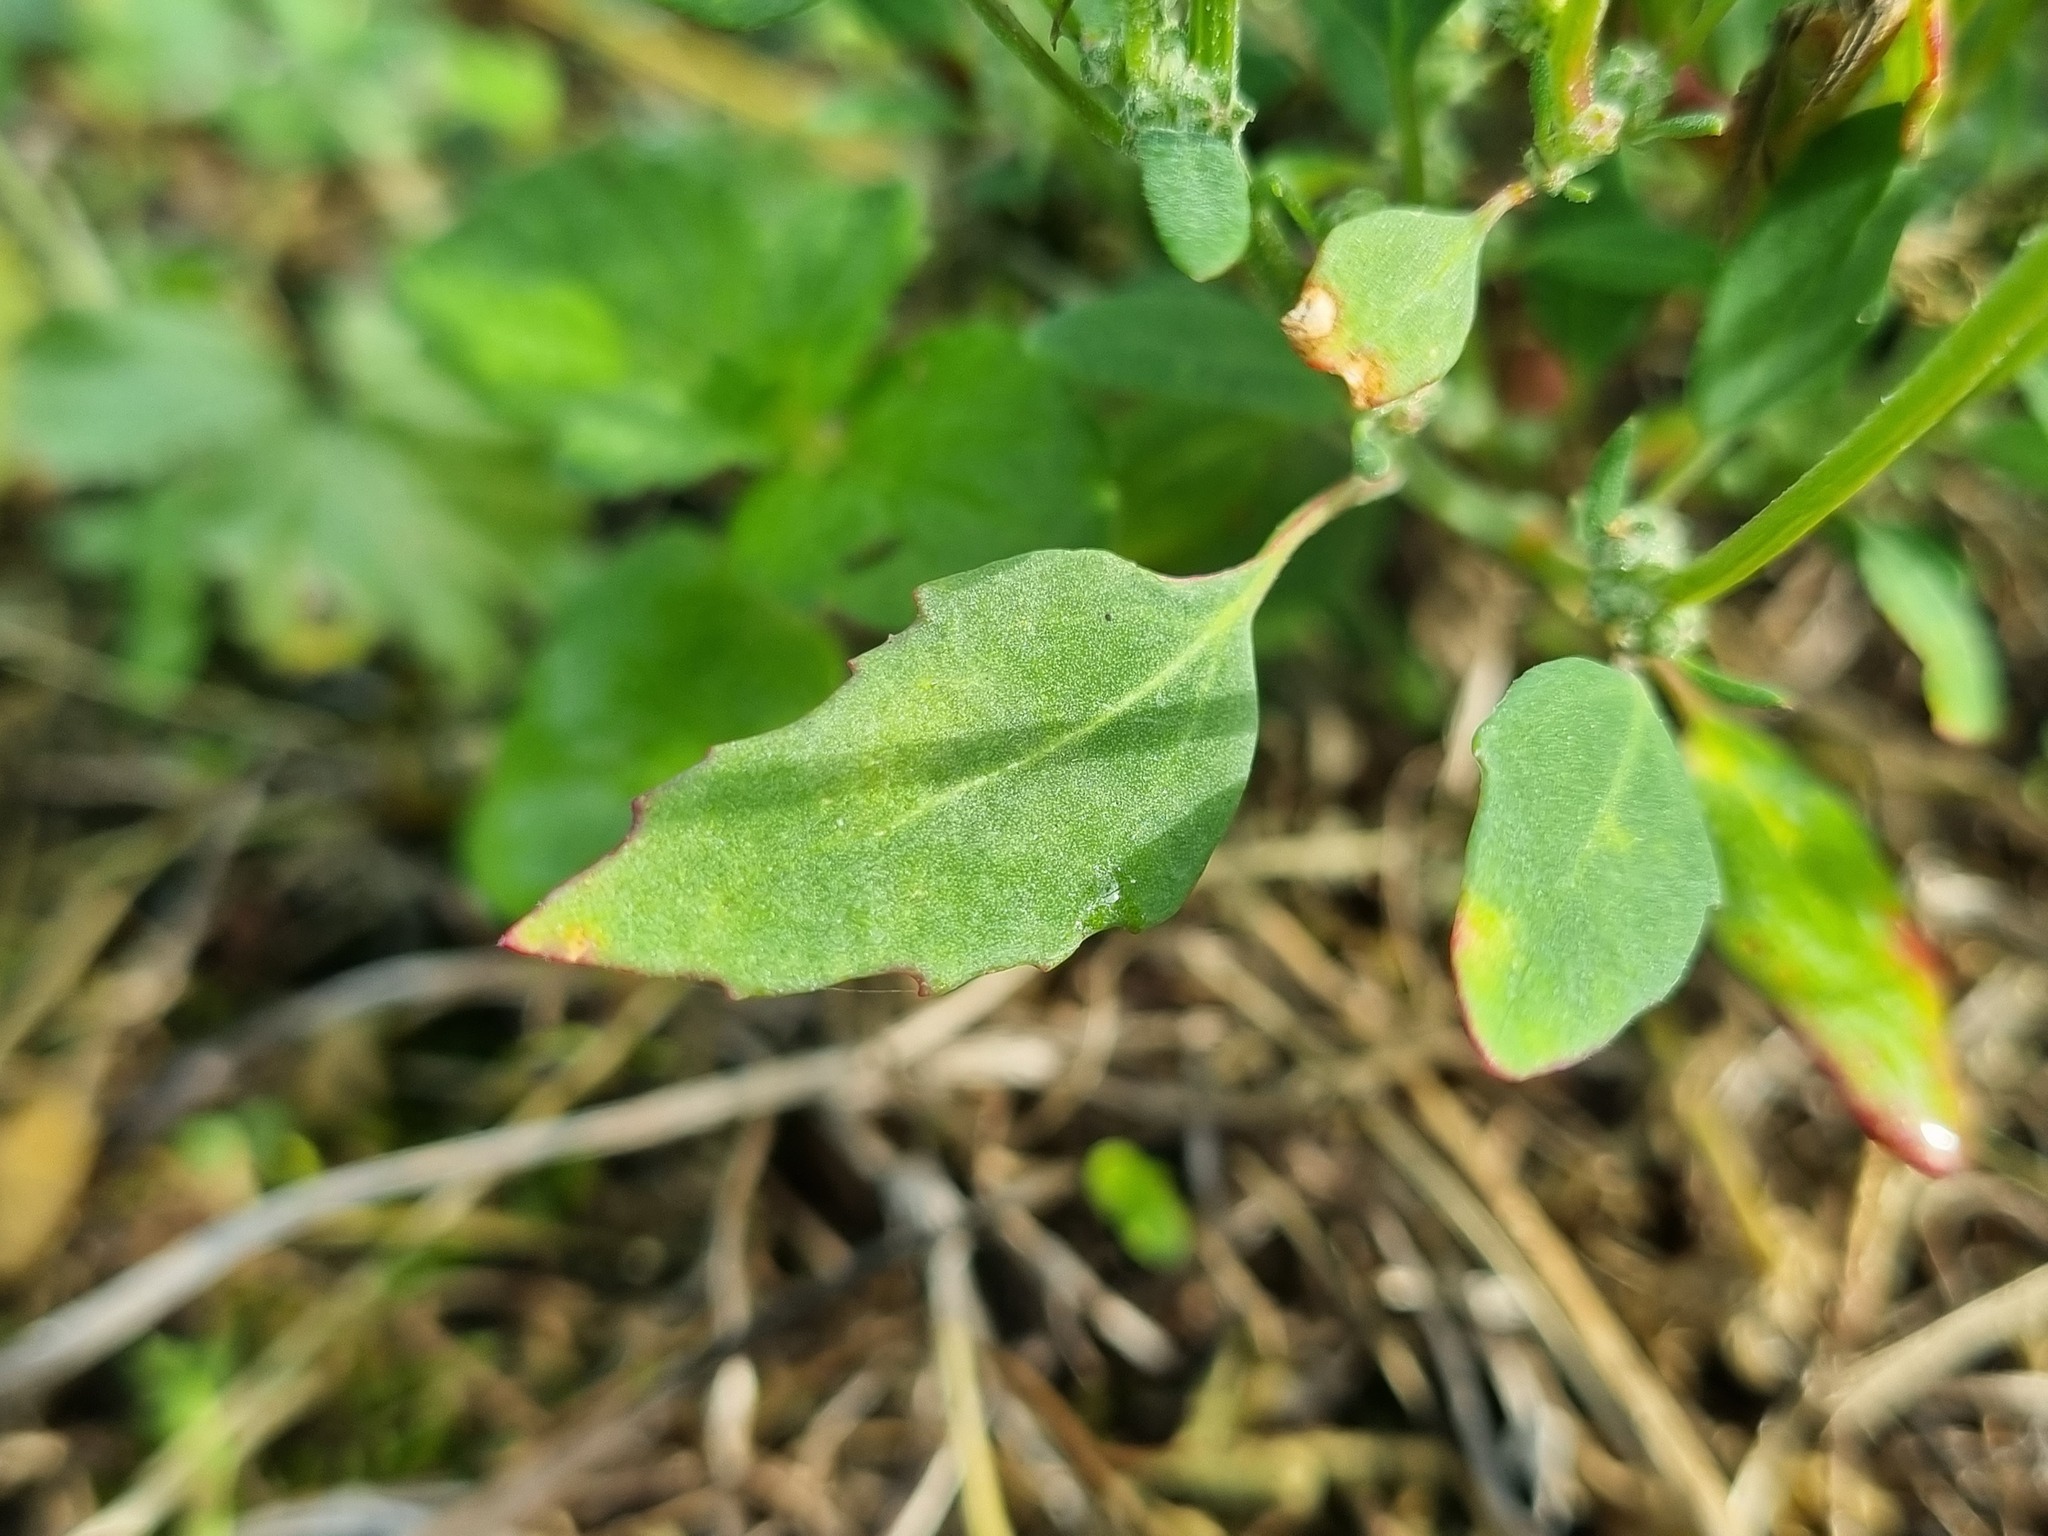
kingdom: Plantae
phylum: Tracheophyta
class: Magnoliopsida
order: Caryophyllales
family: Amaranthaceae
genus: Chenopodium
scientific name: Chenopodium album
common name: Fat-hen
